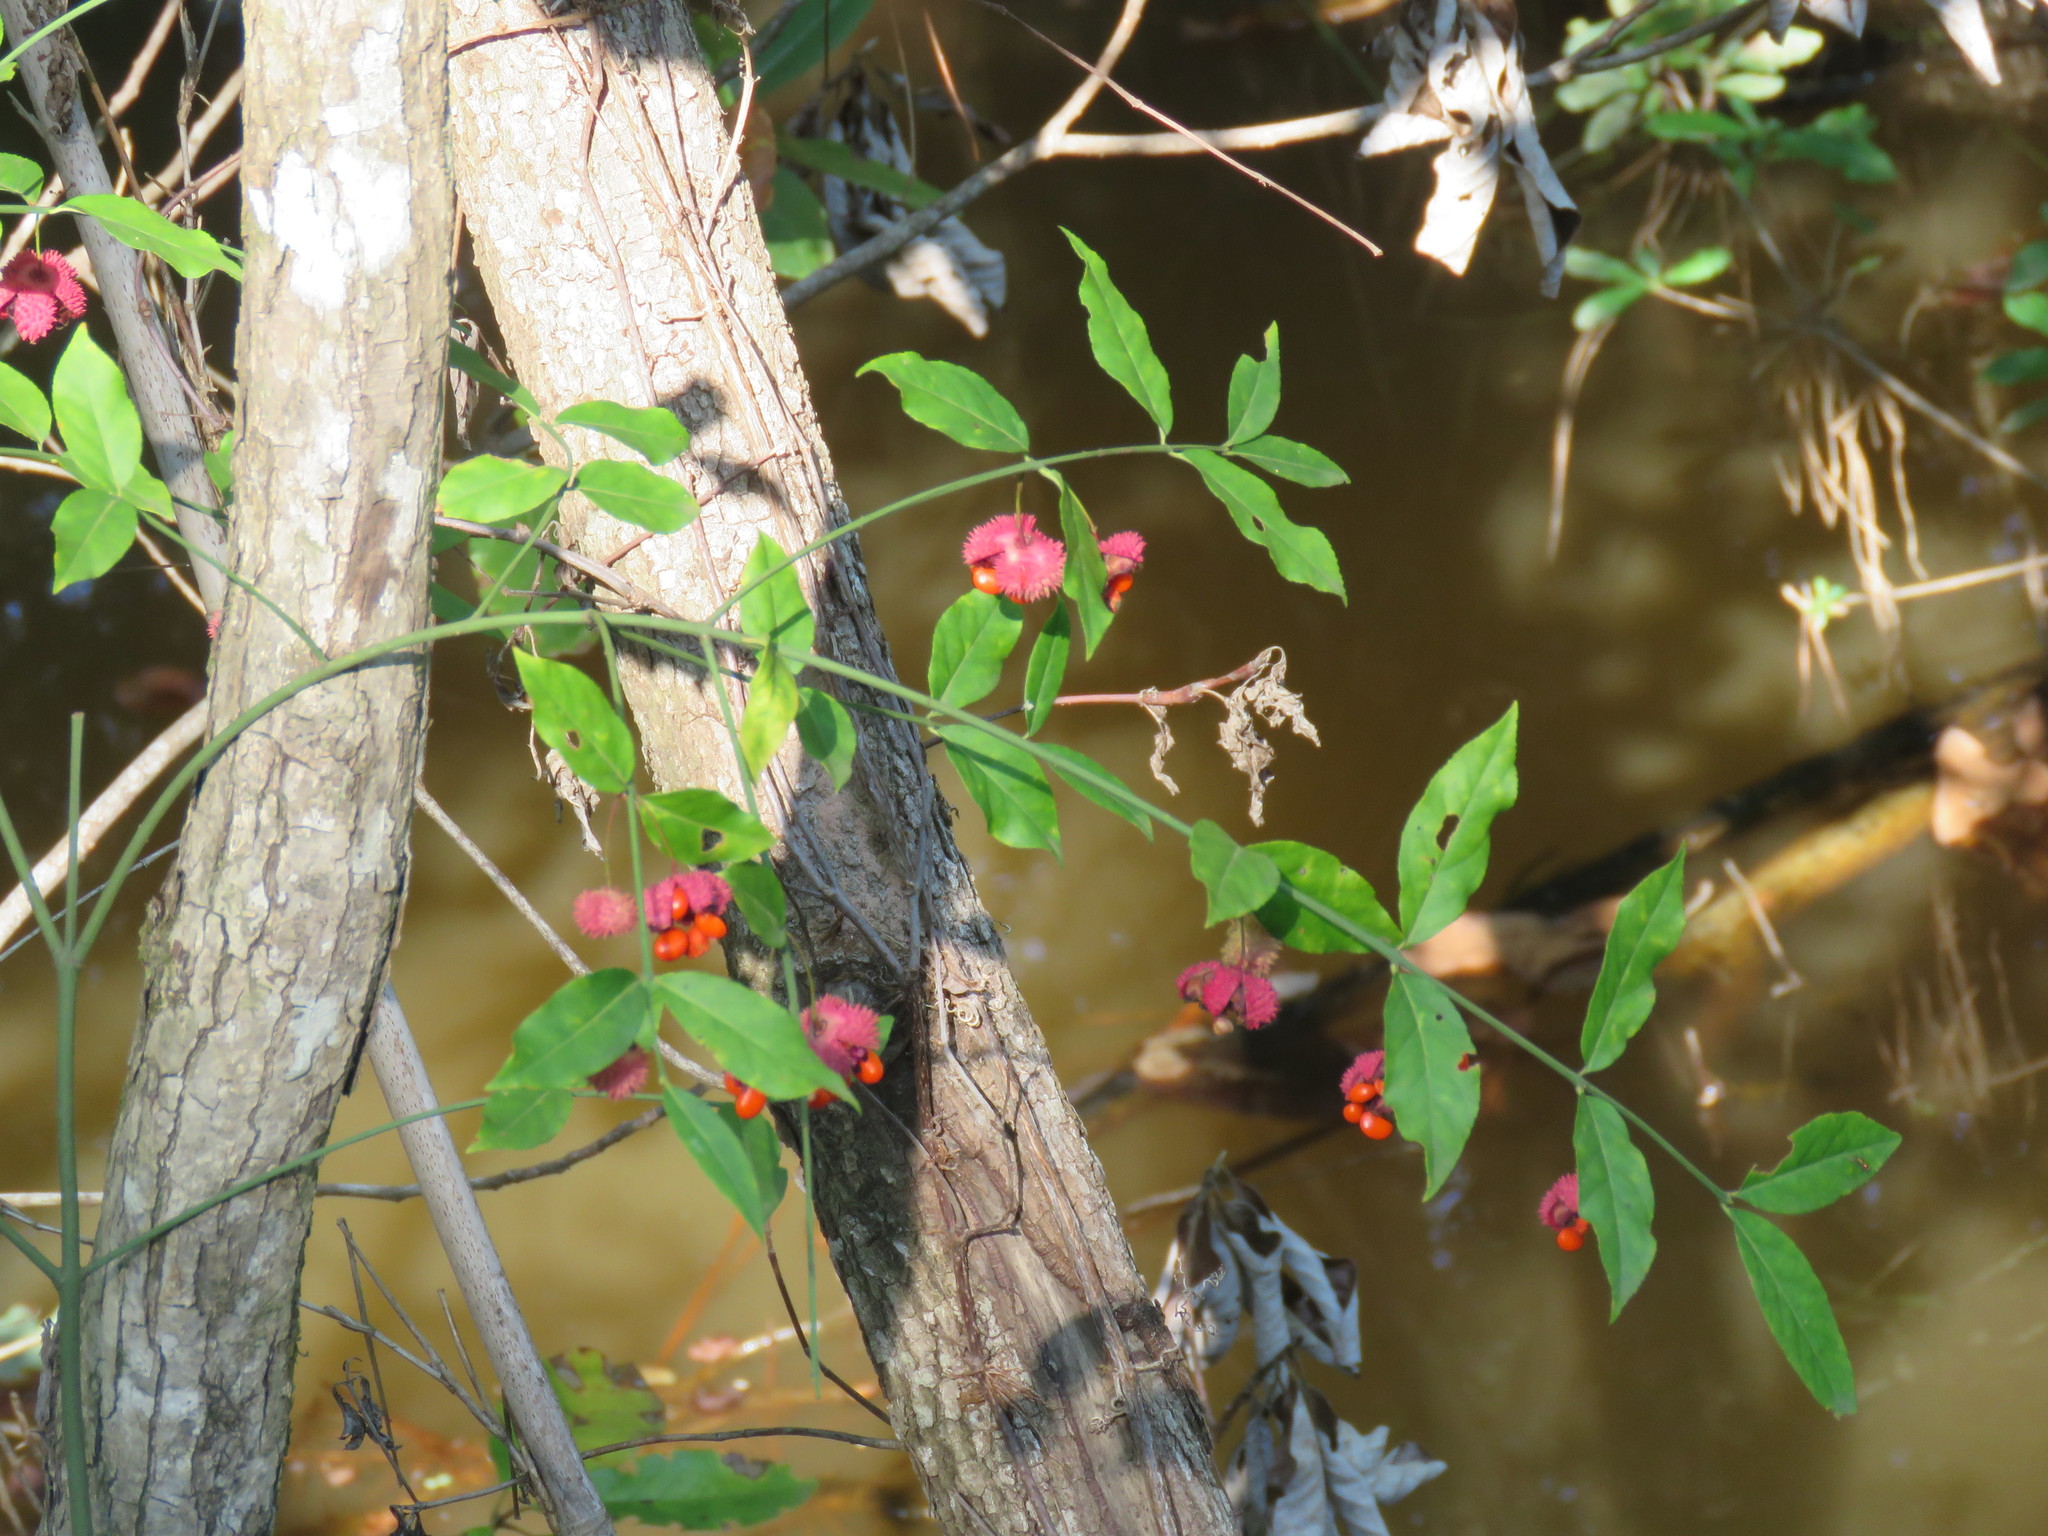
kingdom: Plantae
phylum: Tracheophyta
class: Magnoliopsida
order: Celastrales
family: Celastraceae
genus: Euonymus
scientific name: Euonymus americanus
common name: Bursting-heart
